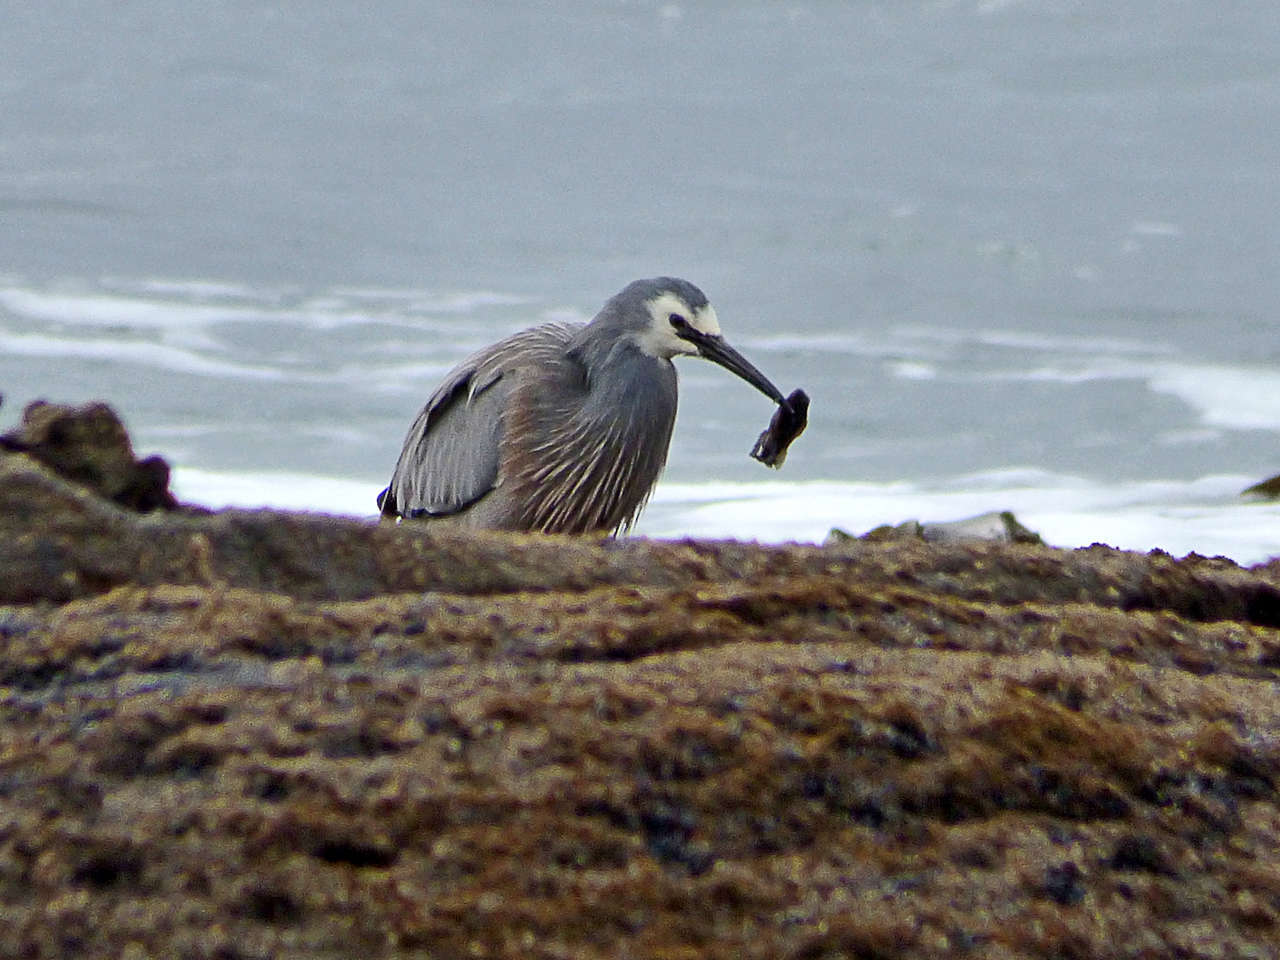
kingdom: Animalia
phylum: Chordata
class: Aves
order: Pelecaniformes
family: Ardeidae
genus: Egretta
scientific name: Egretta novaehollandiae
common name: White-faced heron
